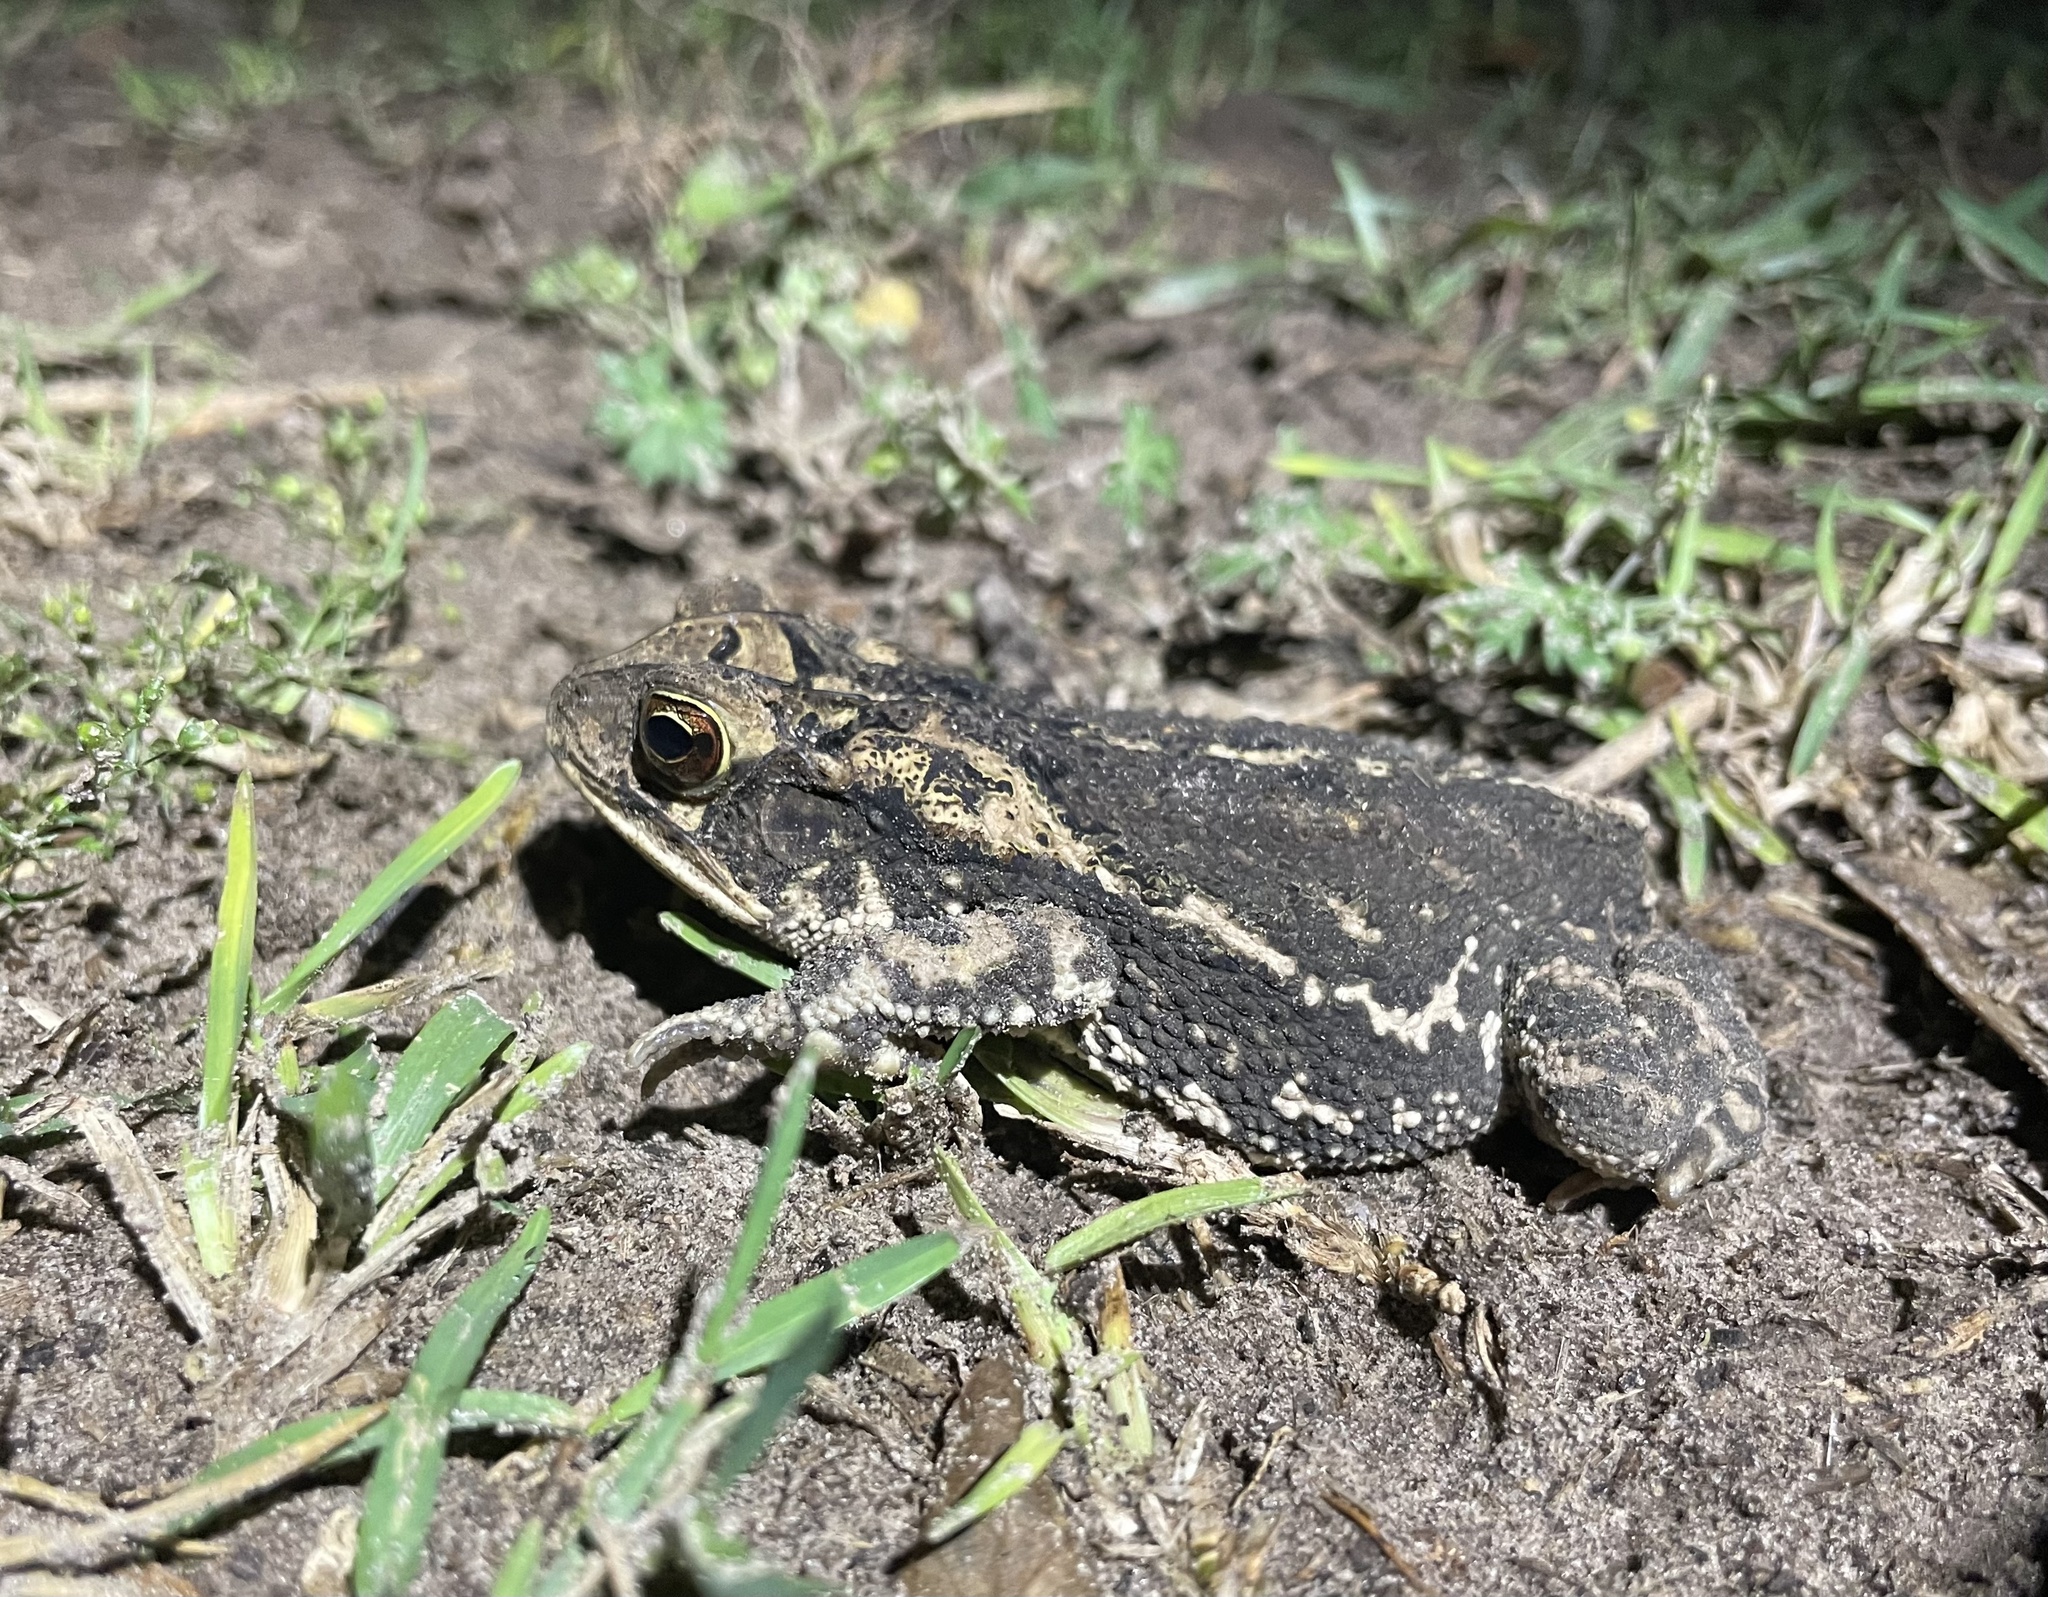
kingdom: Animalia
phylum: Chordata
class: Amphibia
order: Anura
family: Bufonidae
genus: Incilius
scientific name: Incilius nebulifer
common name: Gulf coast toad
